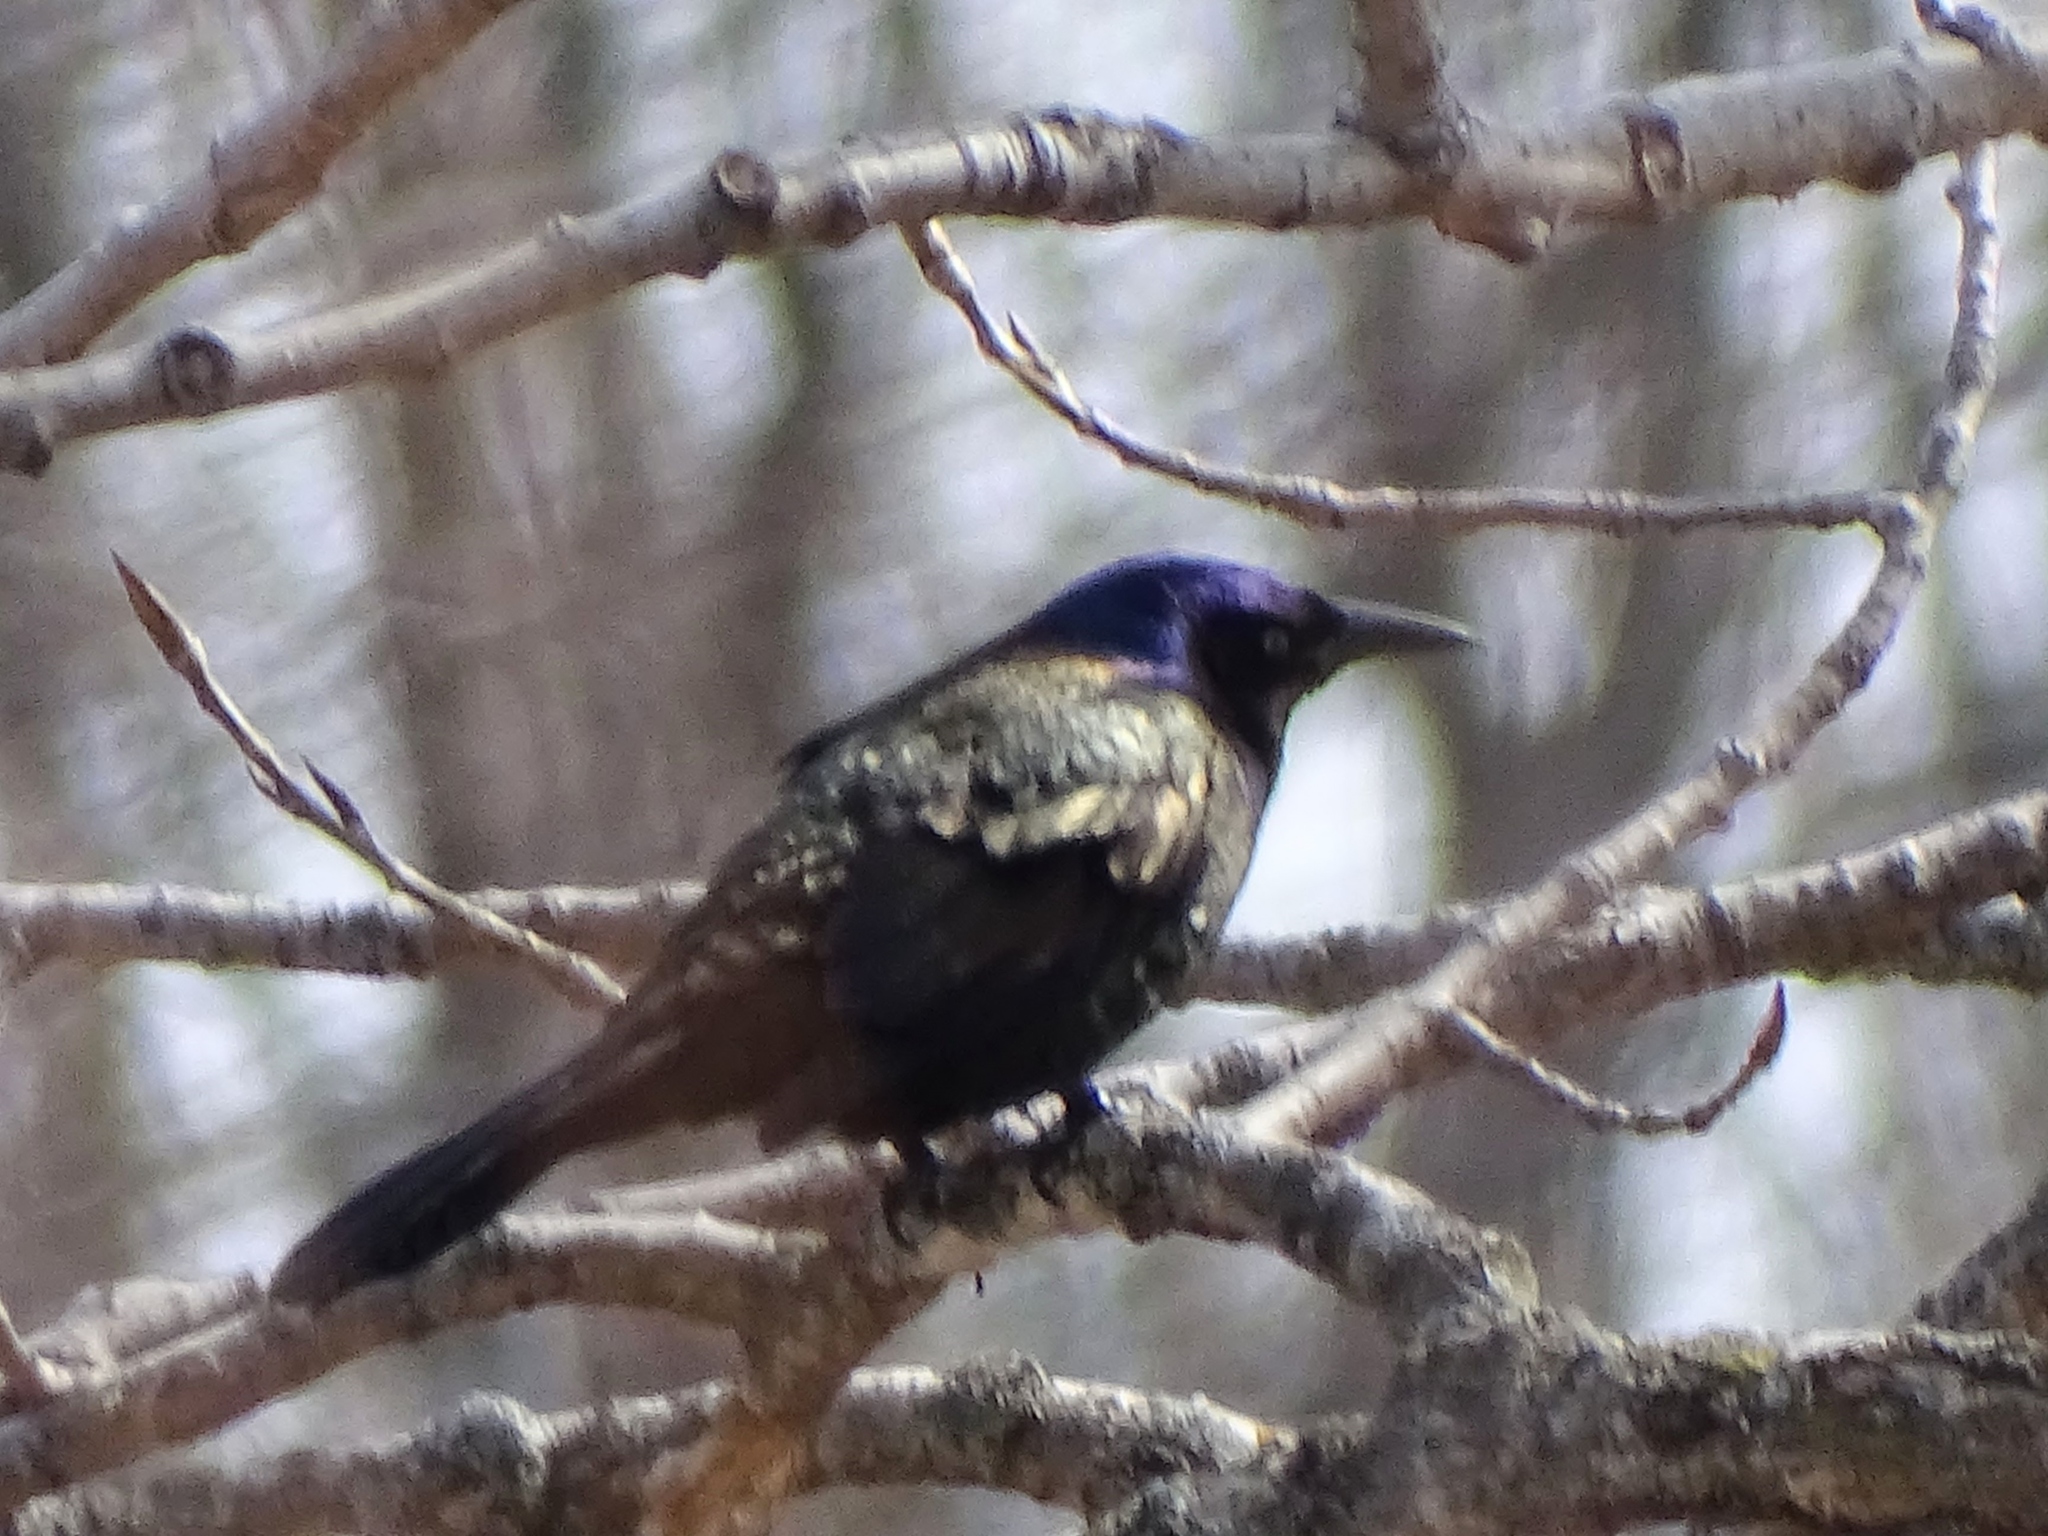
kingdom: Animalia
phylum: Chordata
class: Aves
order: Passeriformes
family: Icteridae
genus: Quiscalus
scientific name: Quiscalus quiscula
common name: Common grackle
